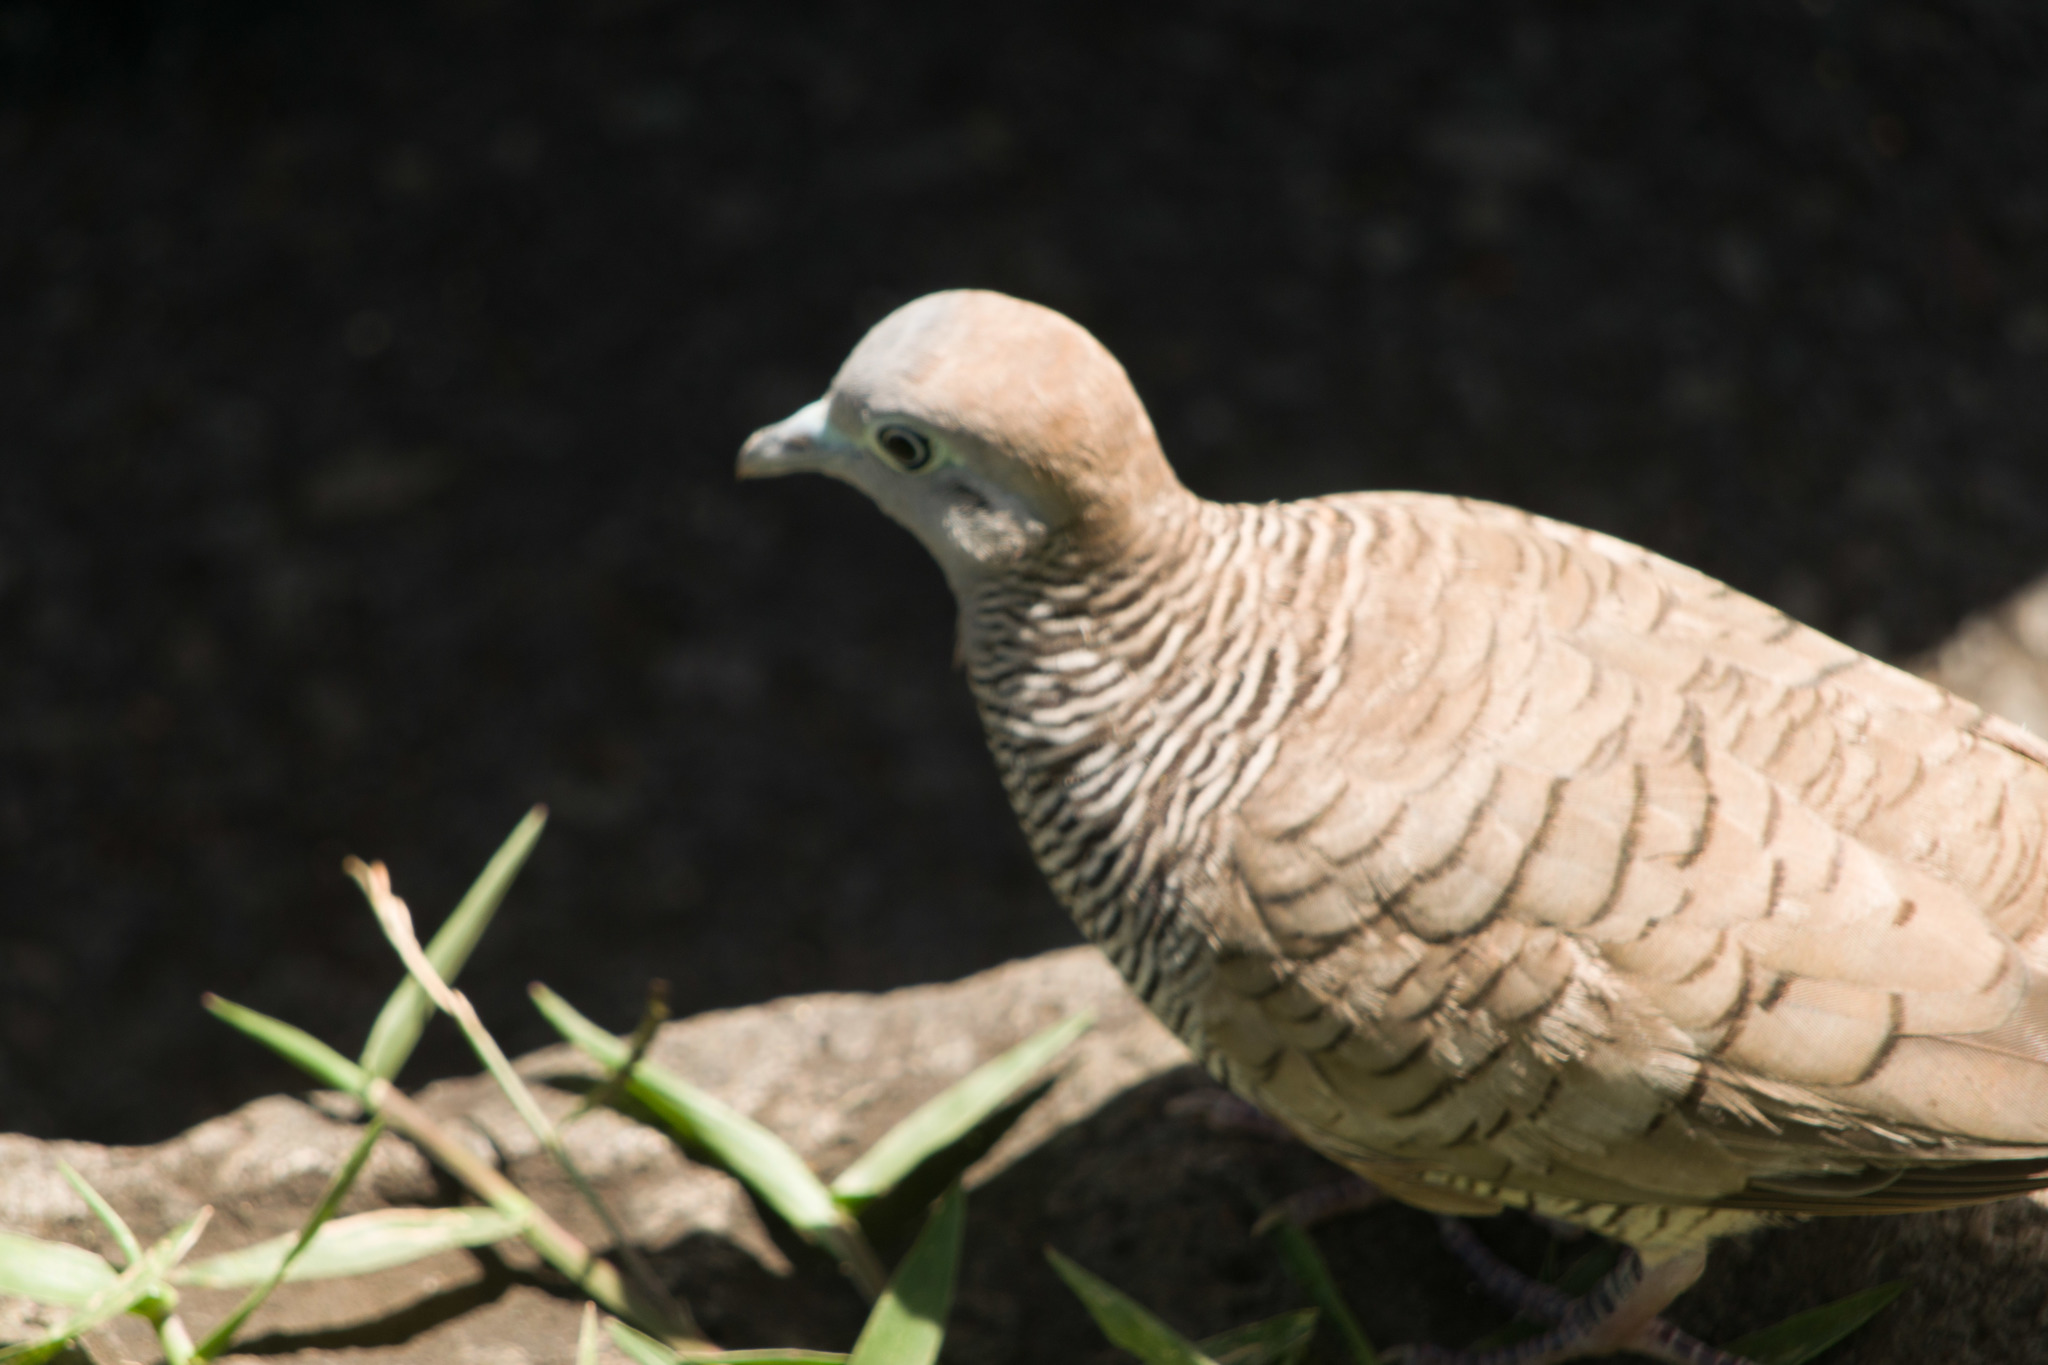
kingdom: Animalia
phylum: Chordata
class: Aves
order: Columbiformes
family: Columbidae
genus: Geopelia
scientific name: Geopelia striata
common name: Zebra dove
